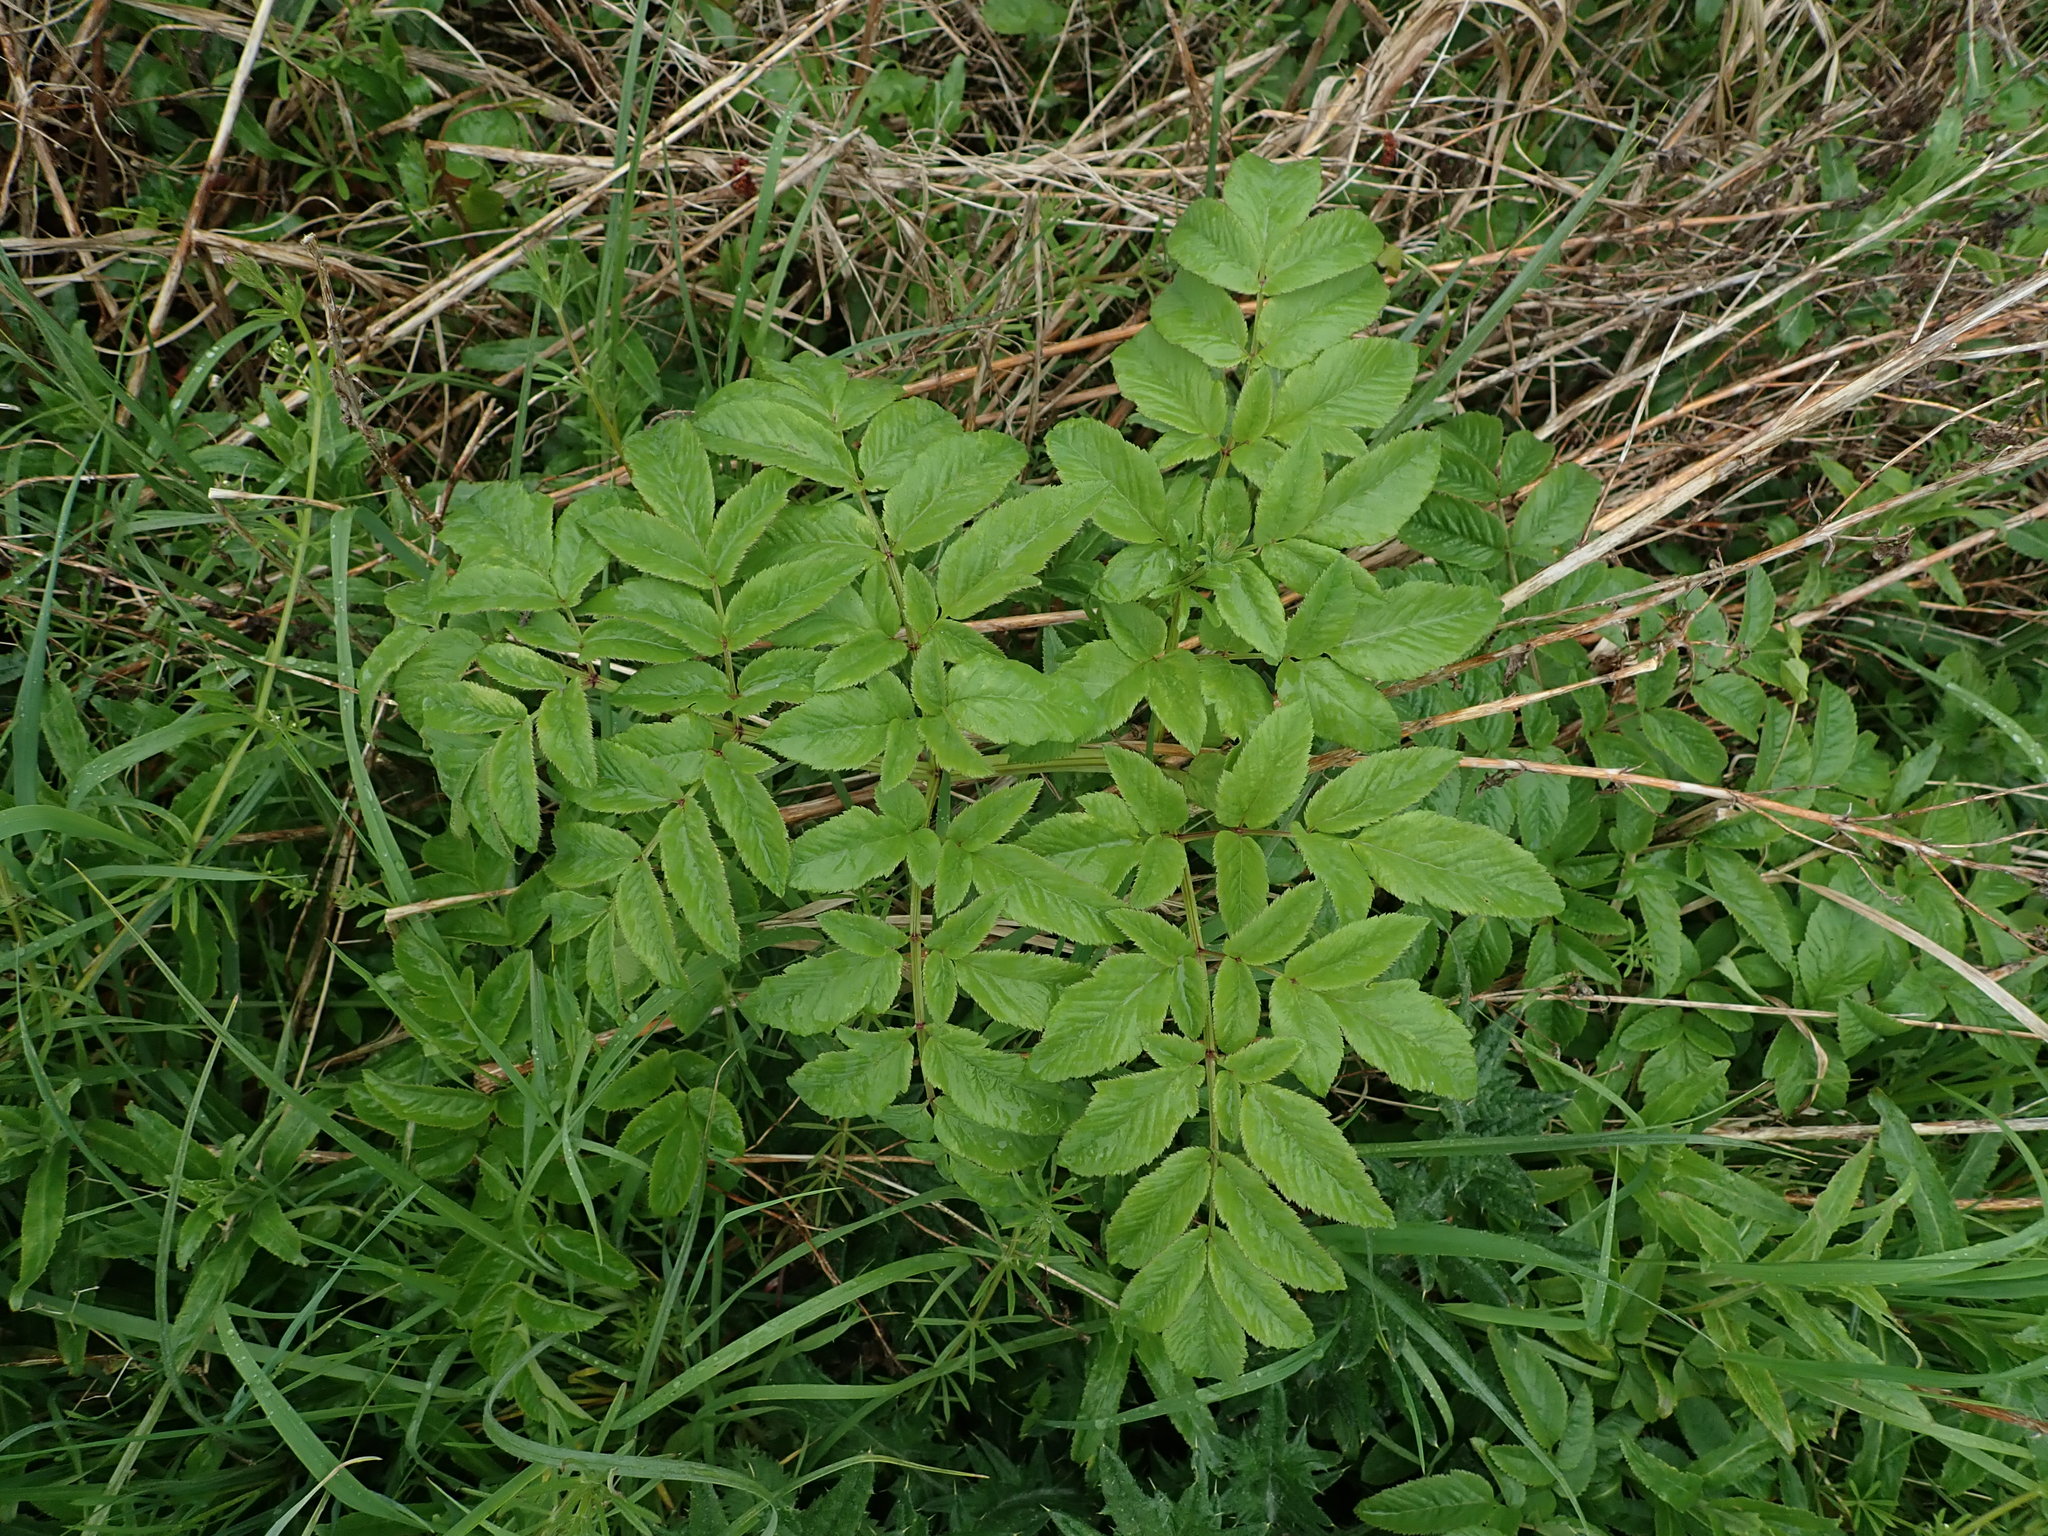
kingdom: Plantae
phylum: Tracheophyta
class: Magnoliopsida
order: Apiales
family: Apiaceae
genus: Angelica
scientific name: Angelica sylvestris
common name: Wild angelica
